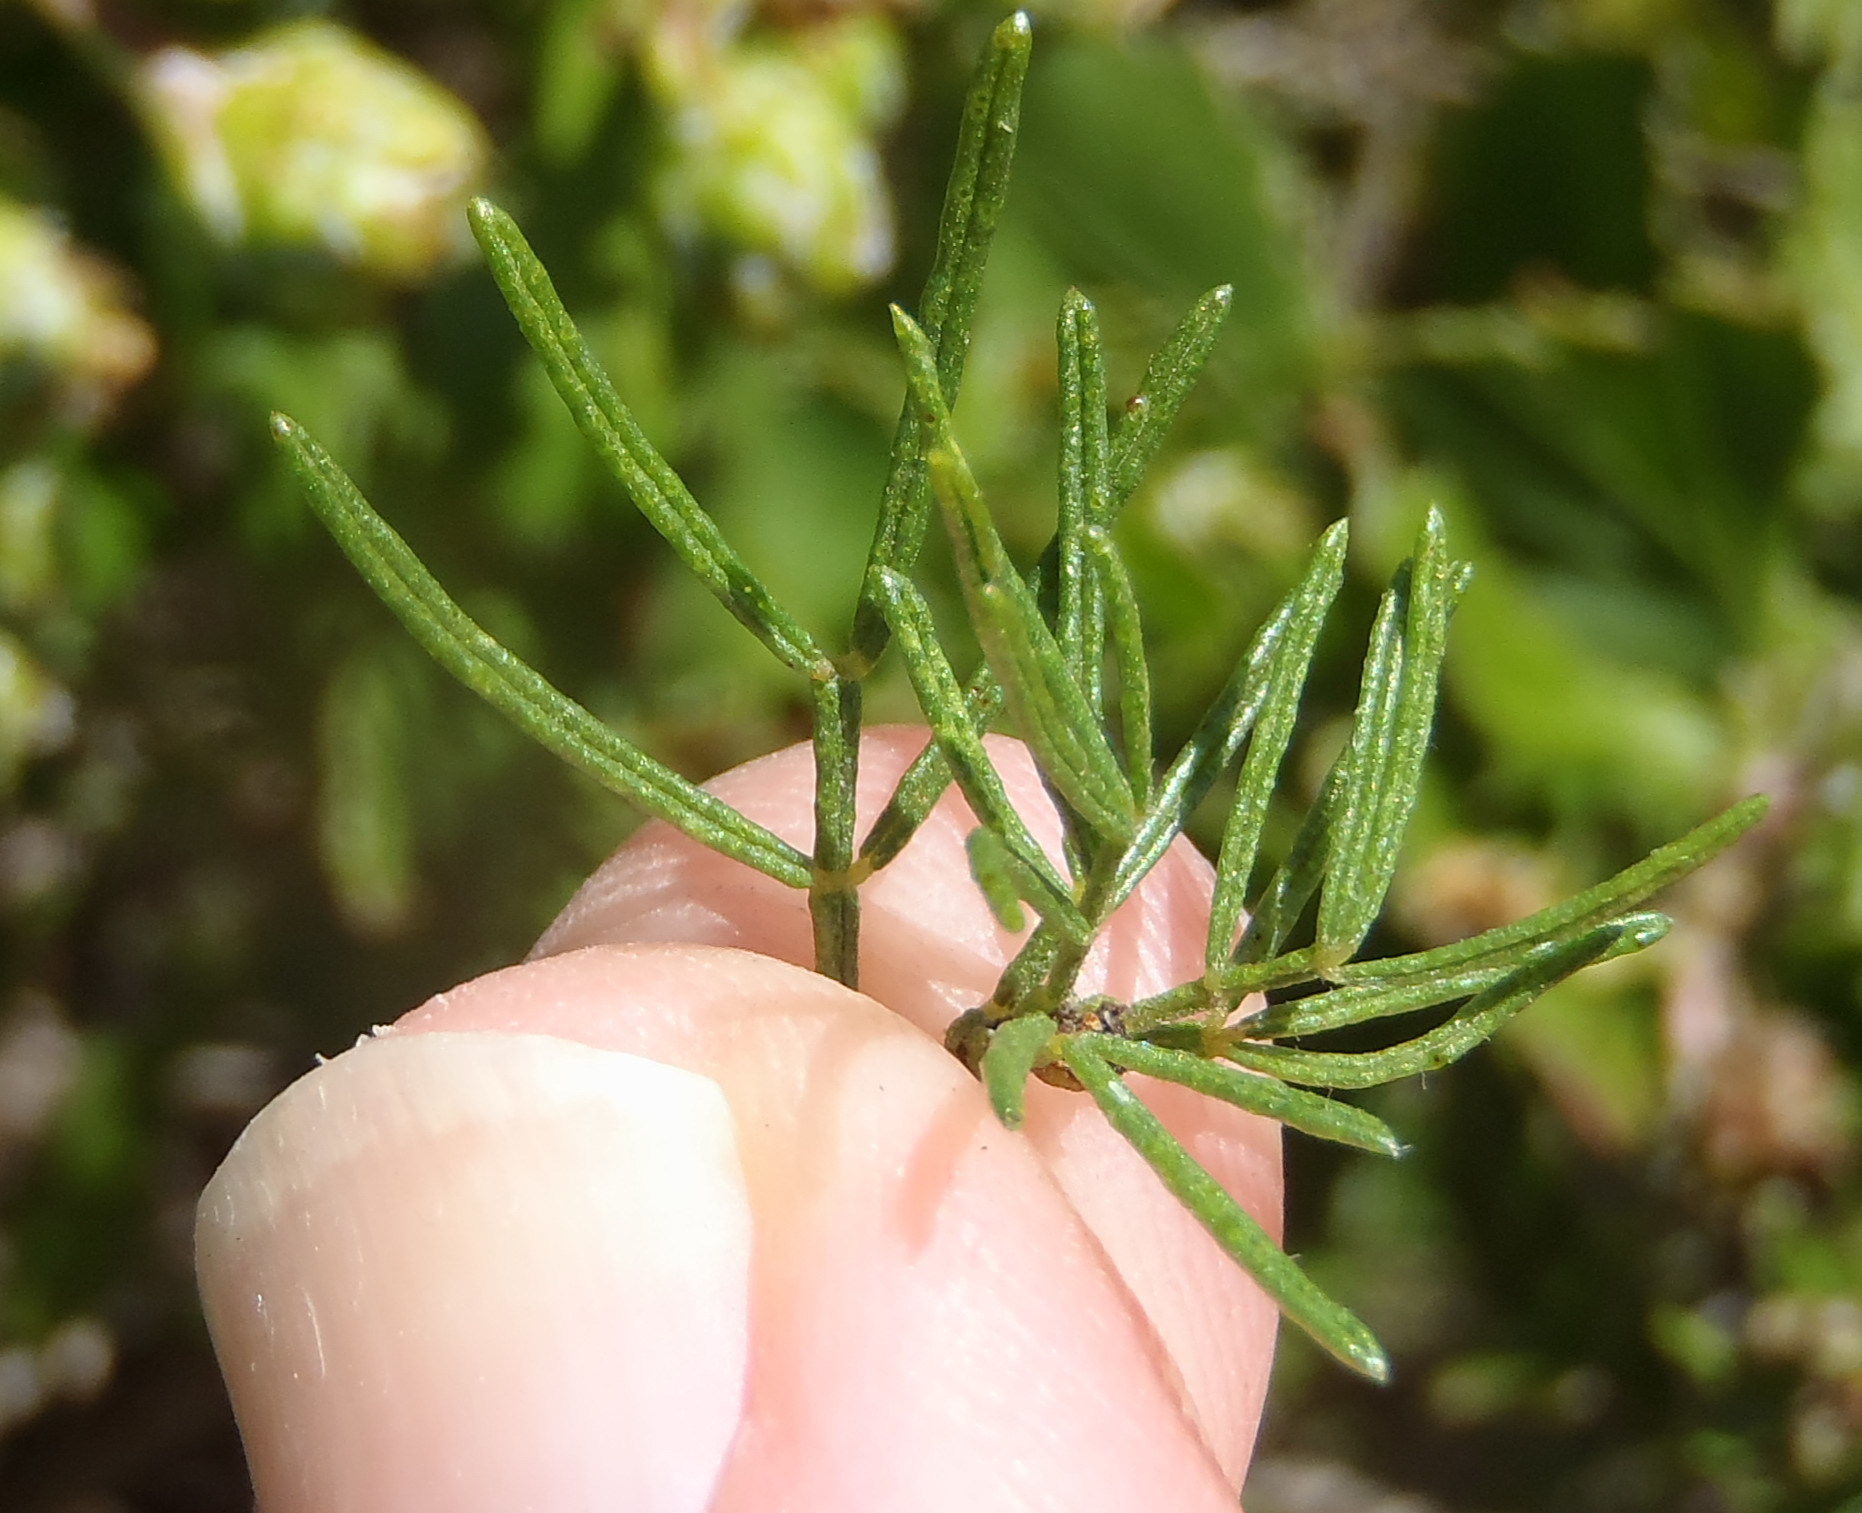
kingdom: Plantae
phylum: Tracheophyta
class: Magnoliopsida
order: Fabales
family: Fabaceae
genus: Psoralea
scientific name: Psoralea vanberkelae
